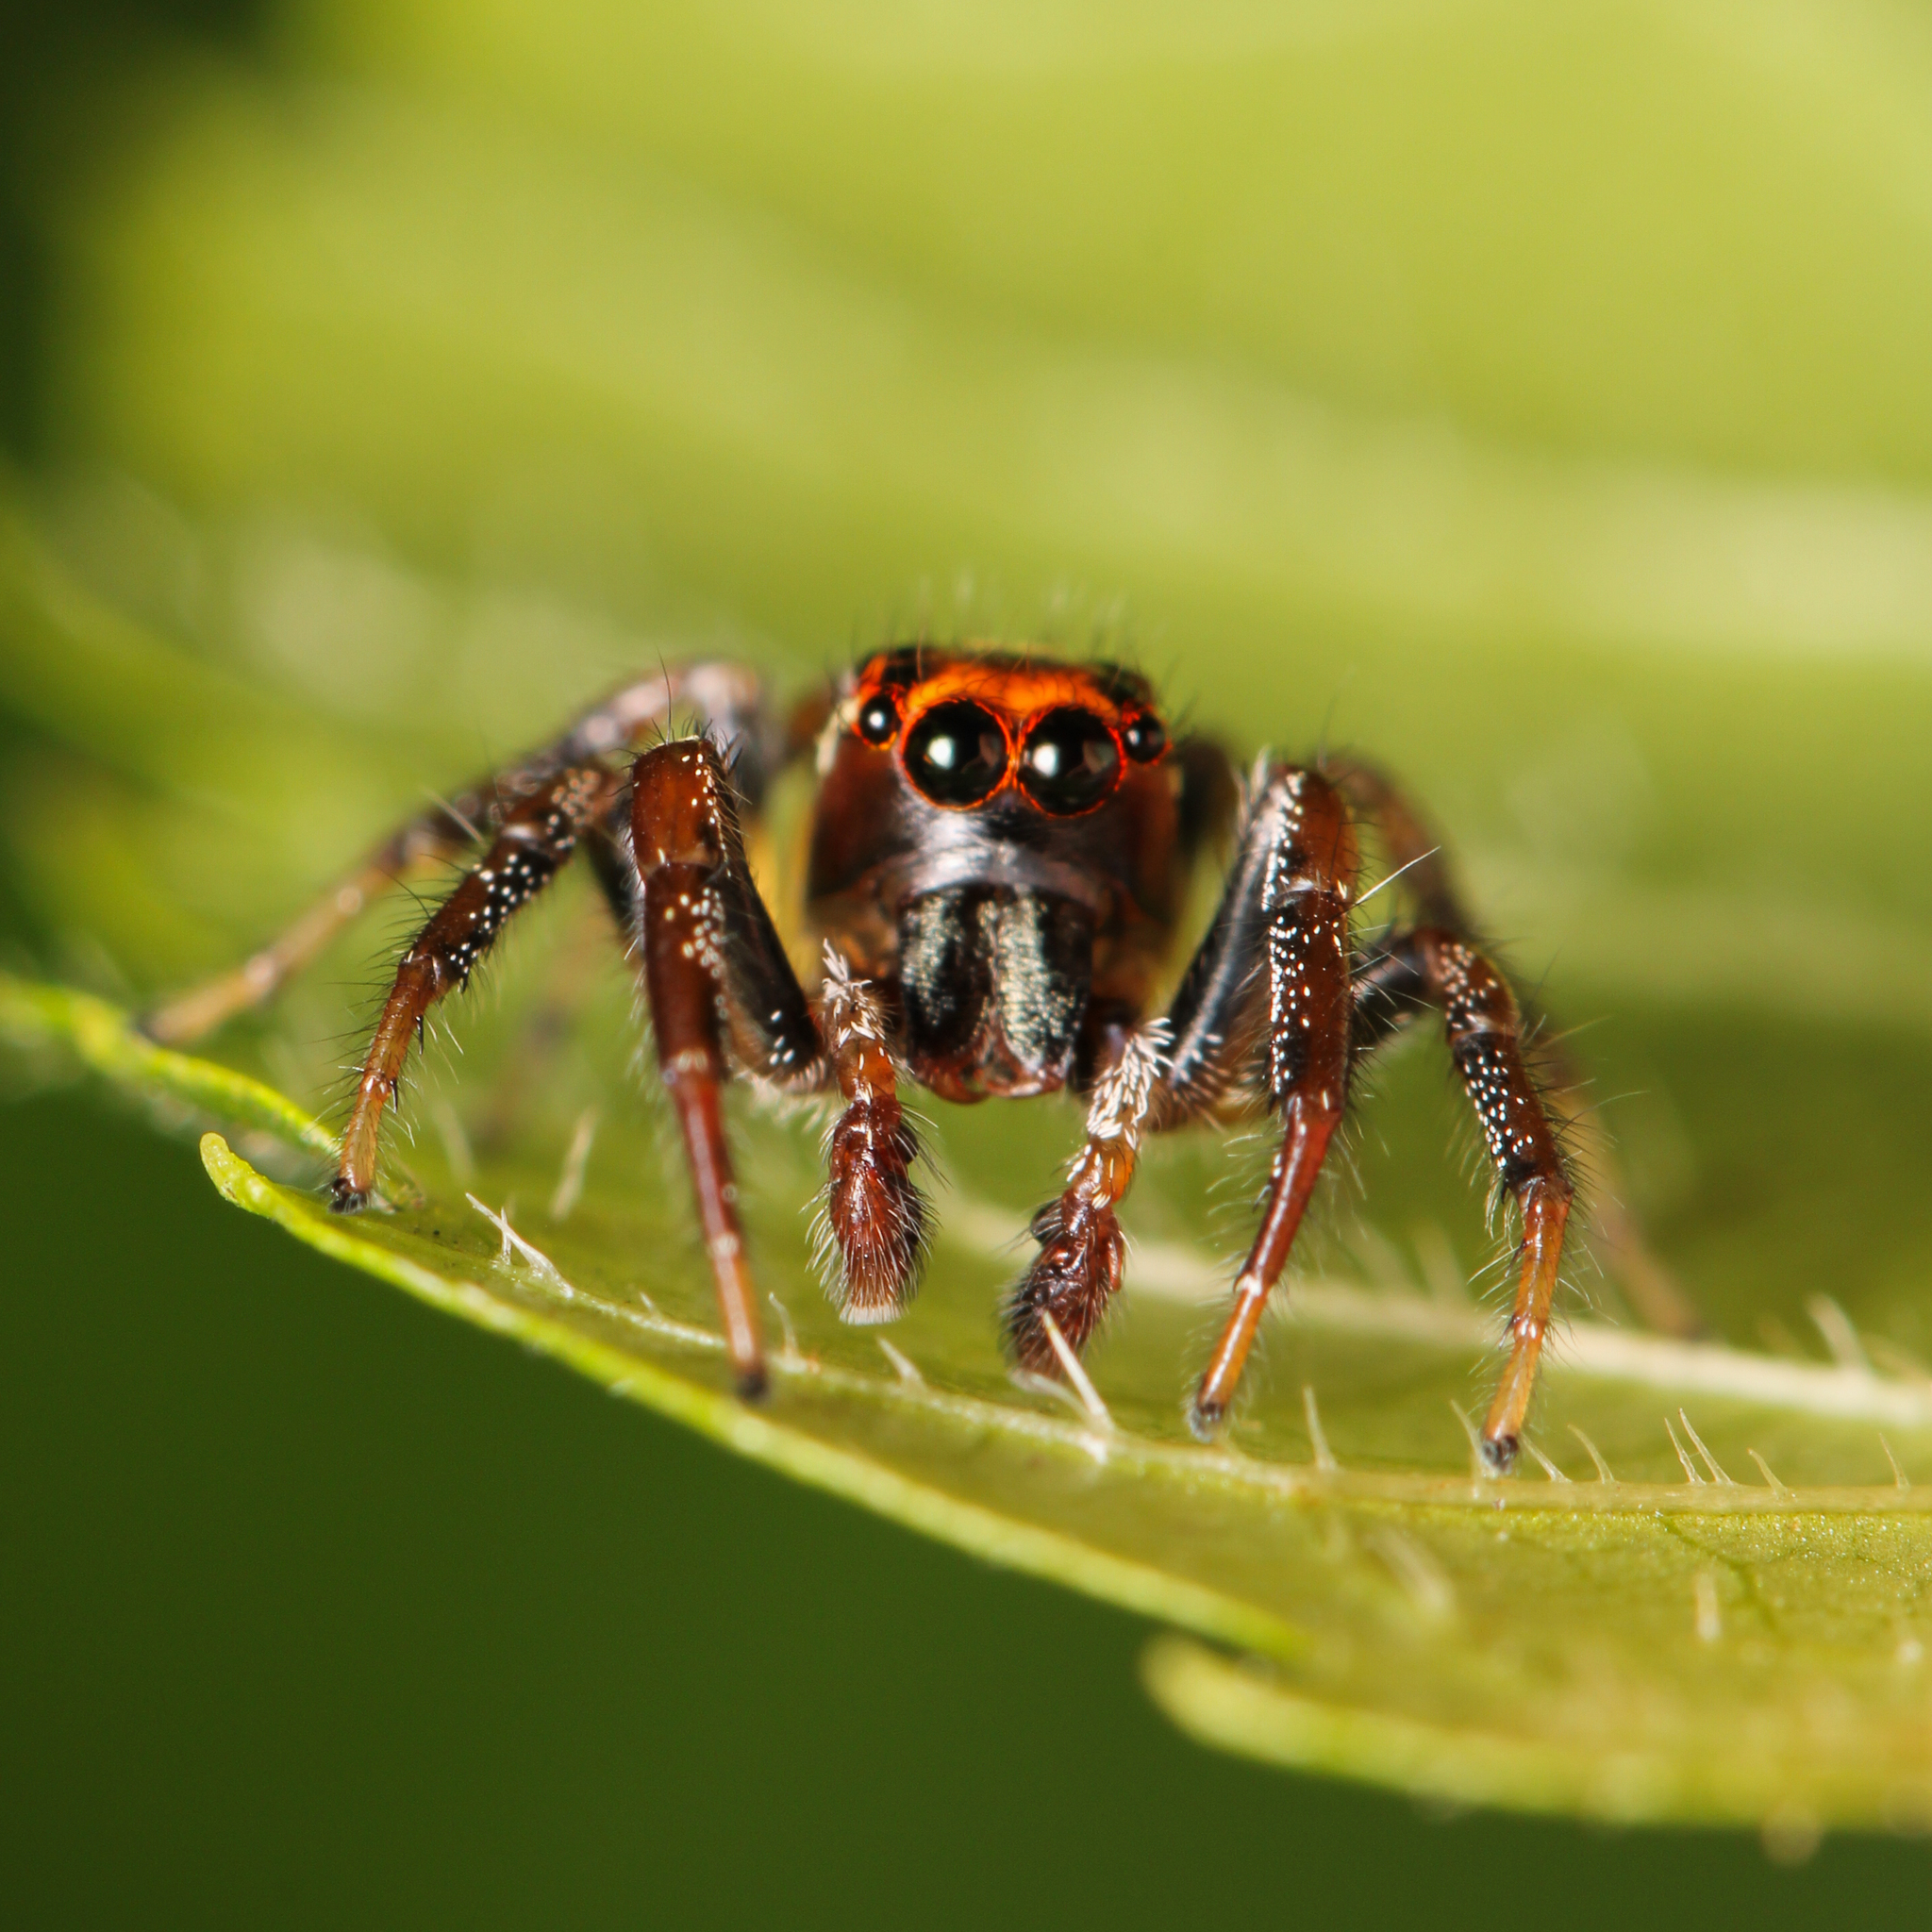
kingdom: Animalia
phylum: Arthropoda
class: Arachnida
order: Araneae
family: Salticidae
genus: Colonus
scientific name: Colonus sylvanus
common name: Jumping spiders
